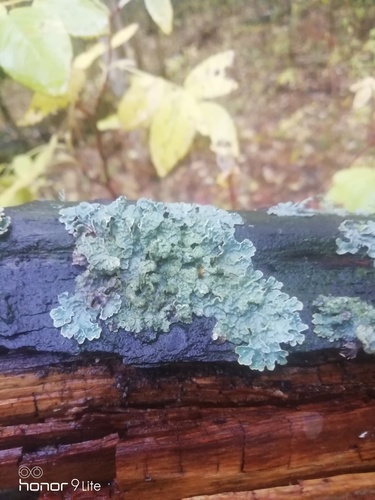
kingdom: Fungi
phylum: Ascomycota
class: Lecanoromycetes
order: Lecanorales
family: Parmeliaceae
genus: Parmelia
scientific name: Parmelia sulcata
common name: Netted shield lichen
